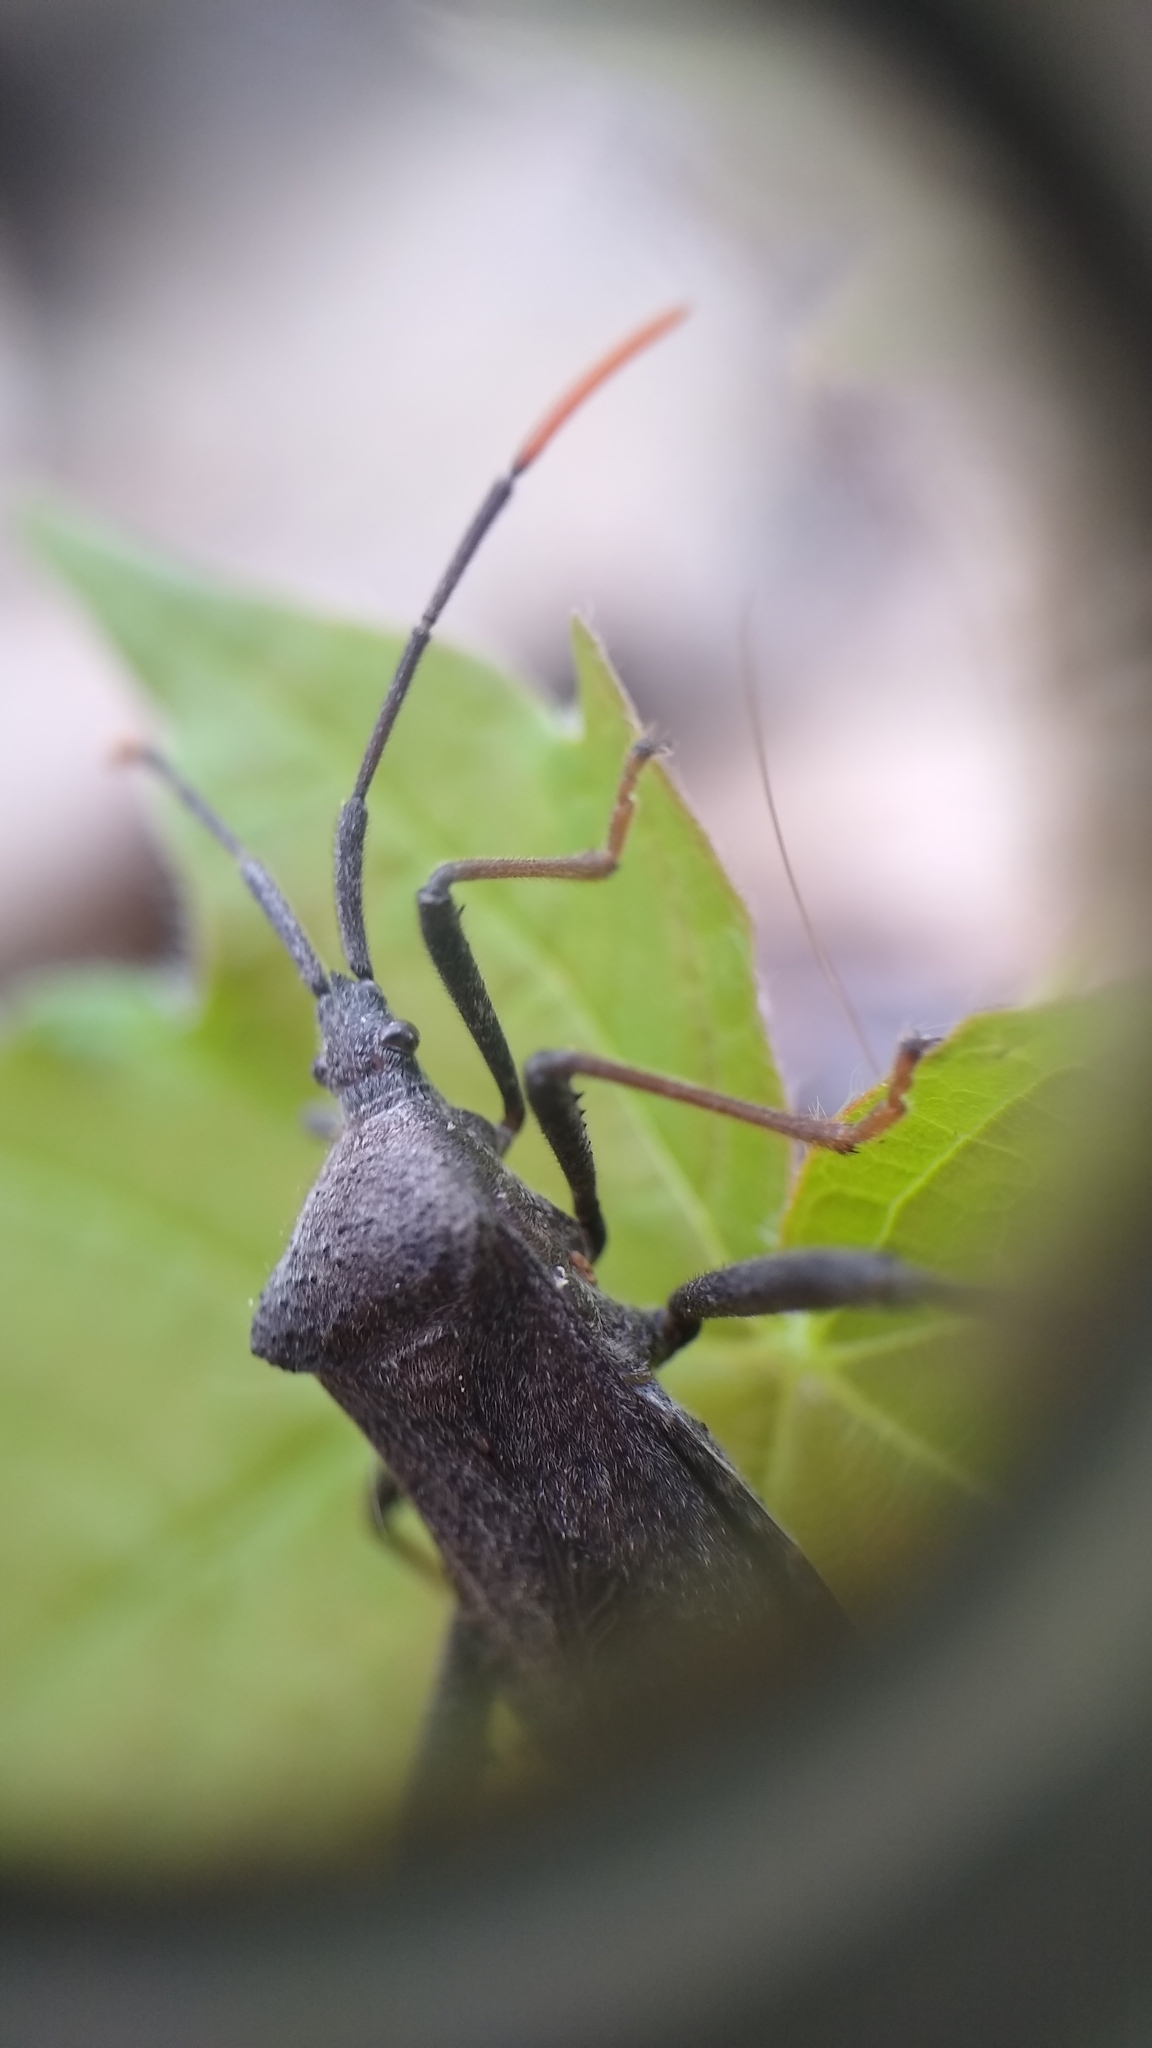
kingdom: Animalia
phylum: Arthropoda
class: Insecta
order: Hemiptera
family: Coreidae
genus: Acanthocephala
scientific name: Acanthocephala terminalis
